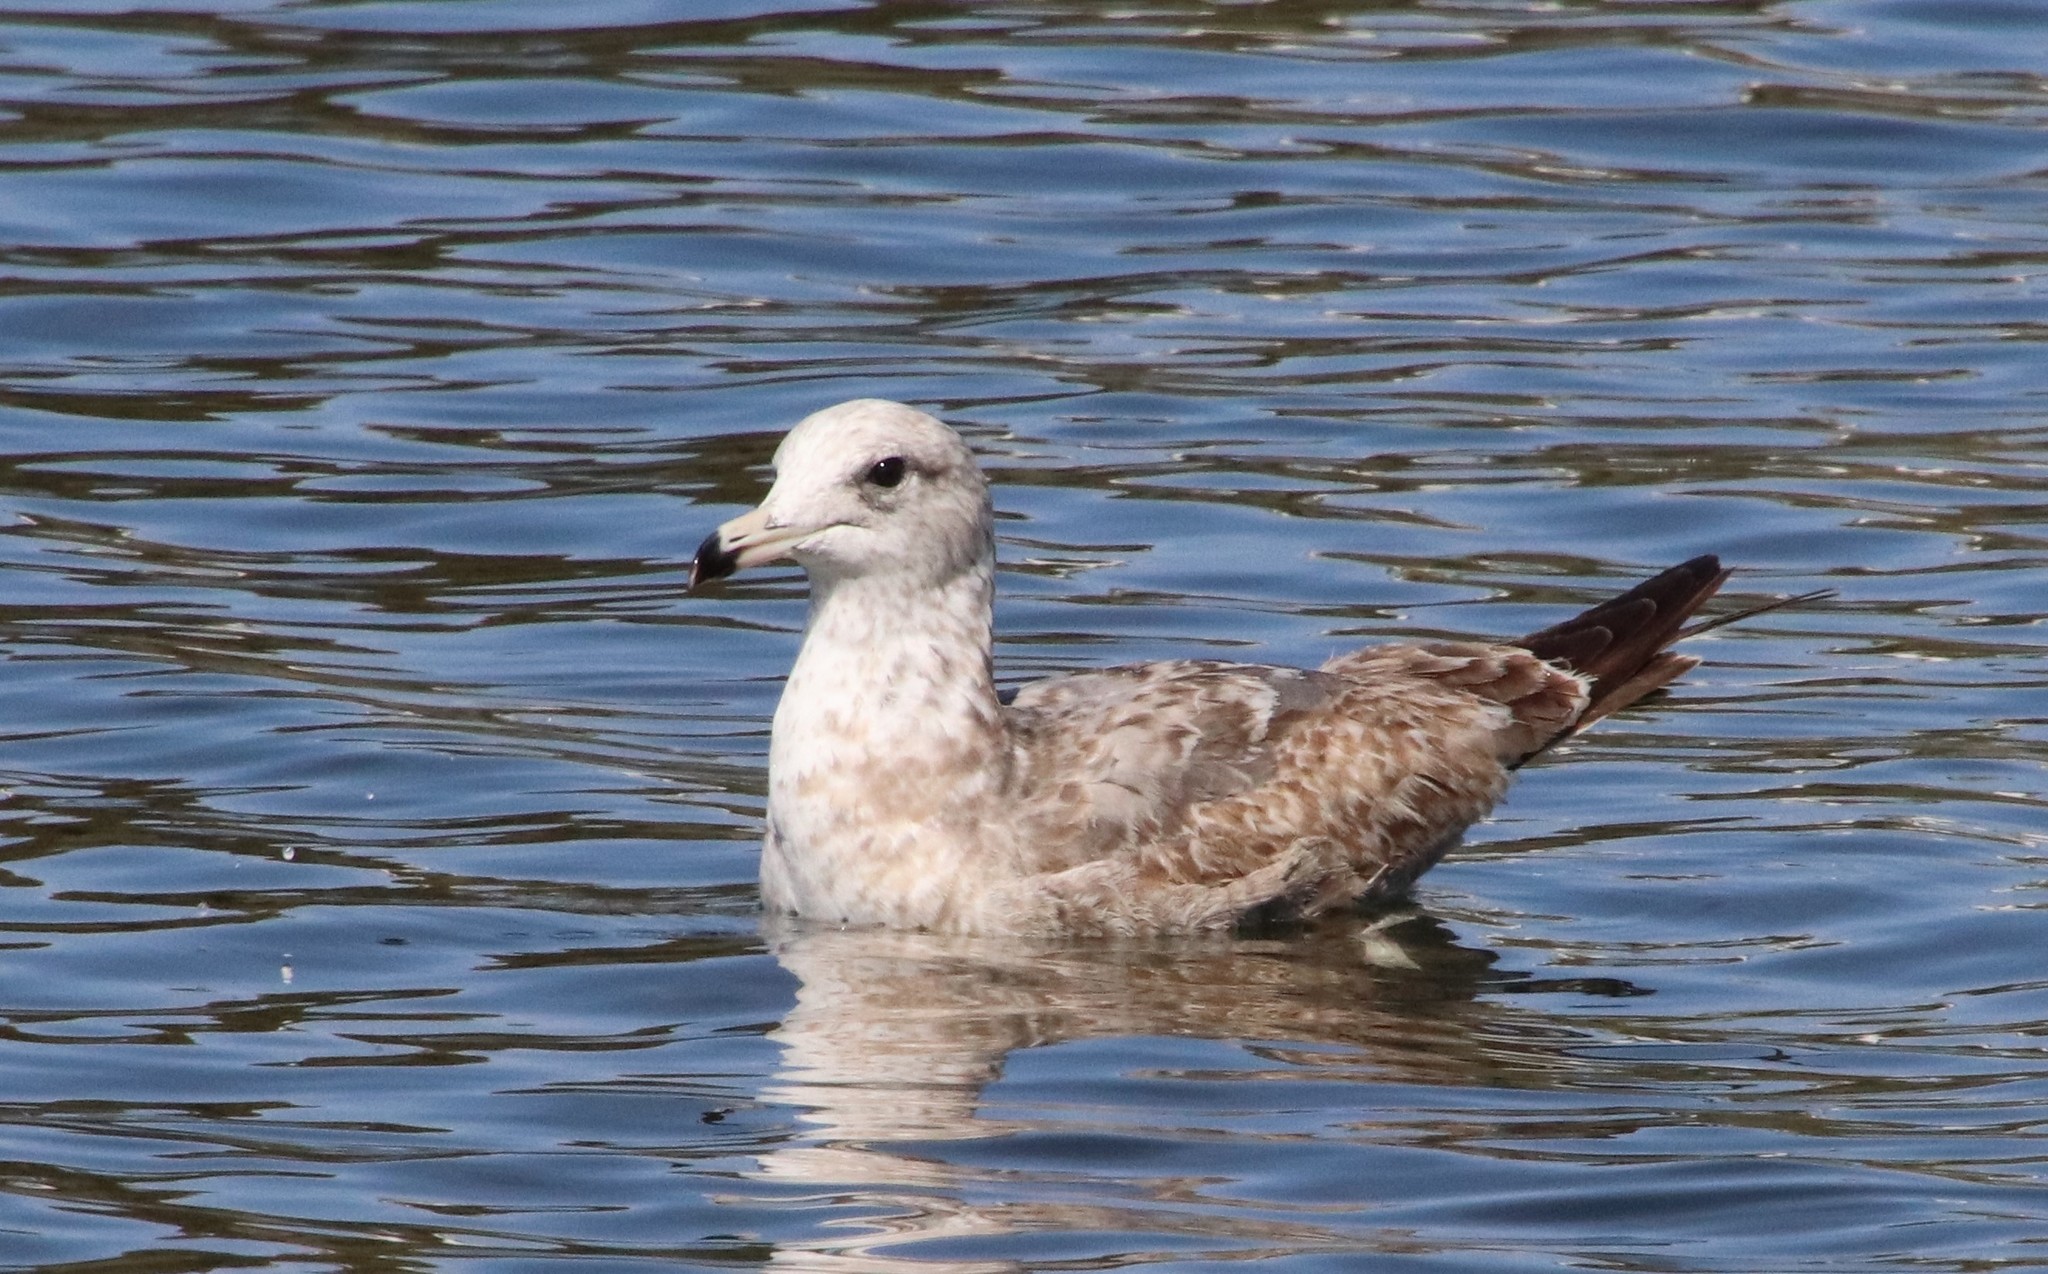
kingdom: Animalia
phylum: Chordata
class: Aves
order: Charadriiformes
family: Laridae
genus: Larus
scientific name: Larus californicus
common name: California gull
